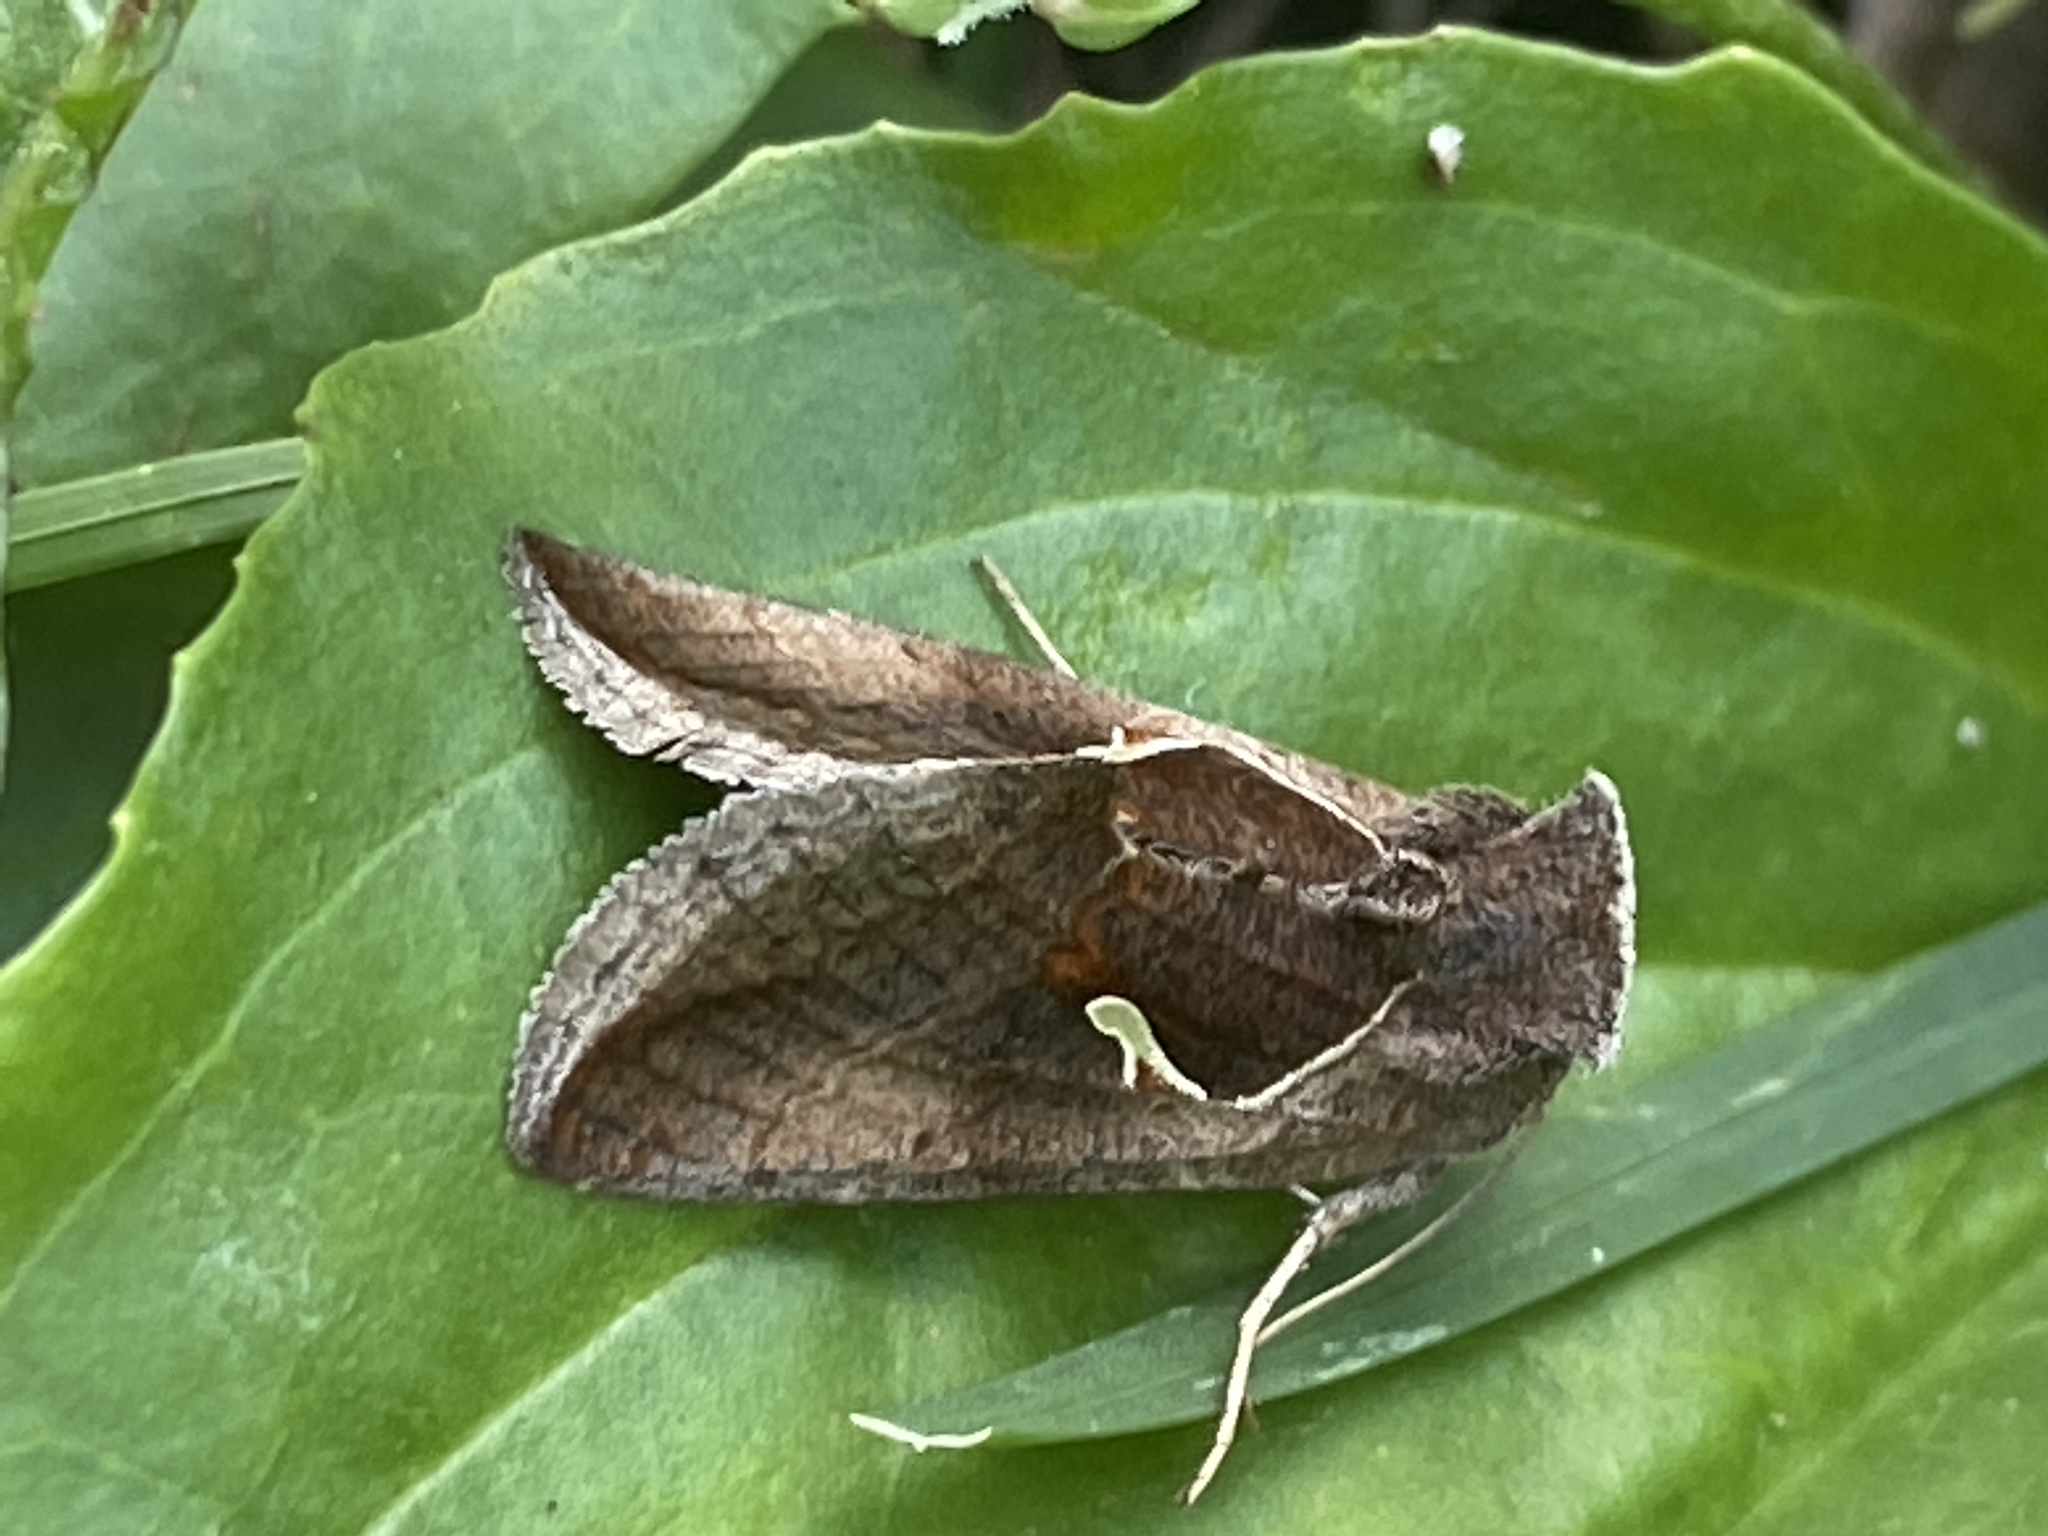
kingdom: Animalia
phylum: Arthropoda
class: Insecta
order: Lepidoptera
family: Noctuidae
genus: Anagrapha
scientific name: Anagrapha falcifera
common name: Celery looper
